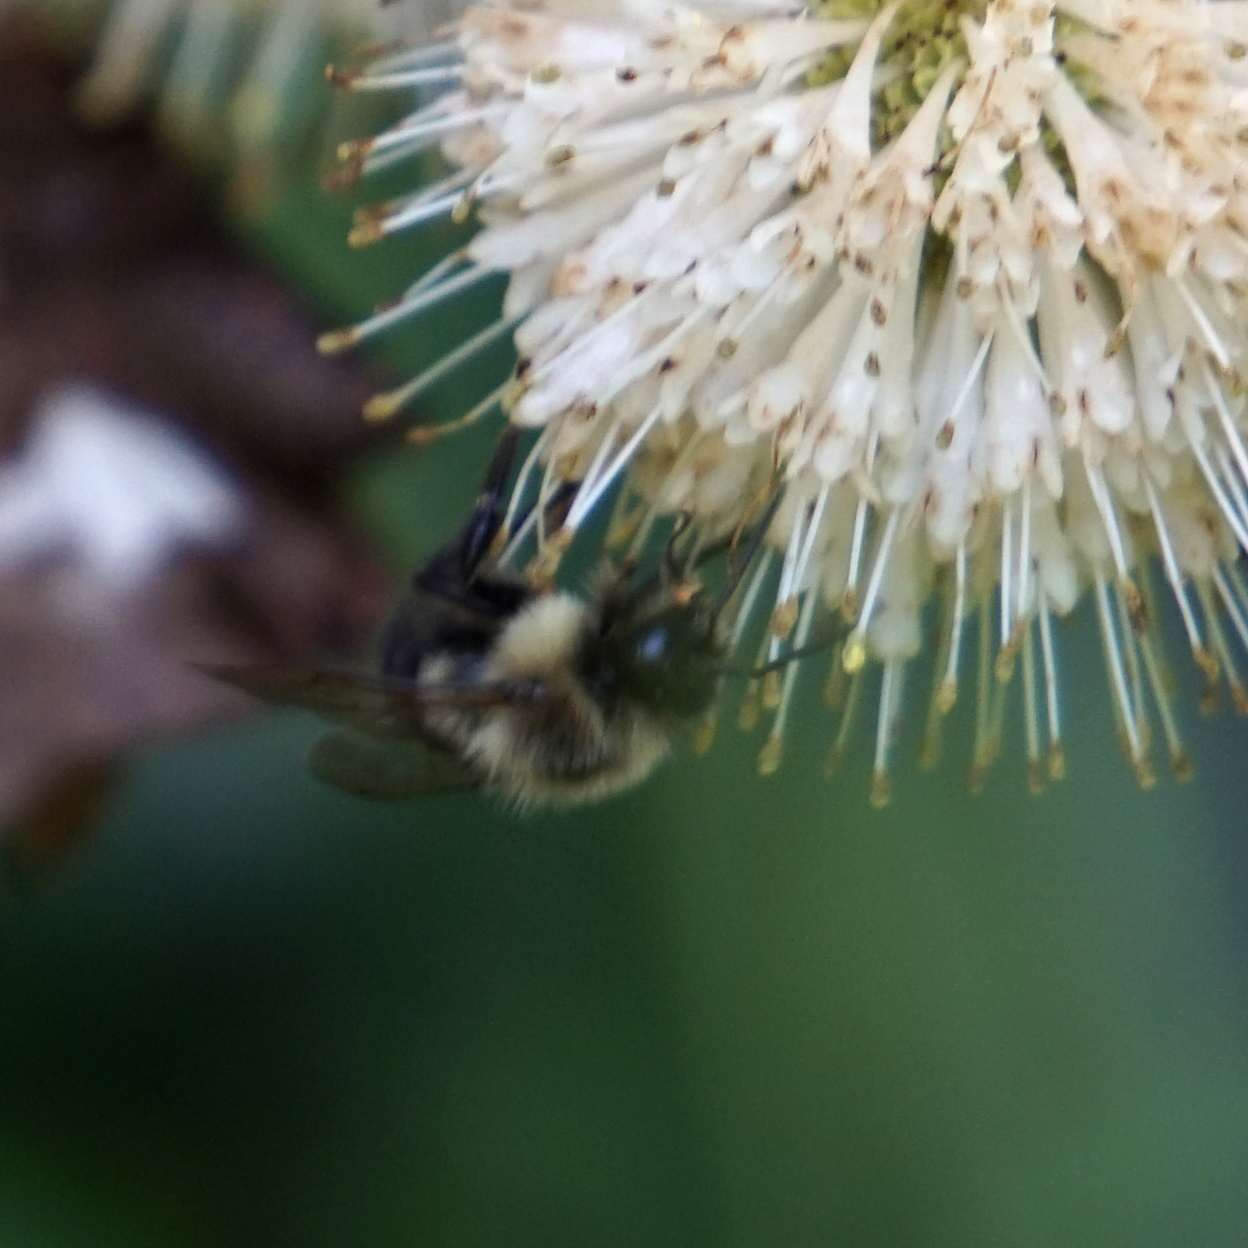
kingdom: Animalia
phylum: Arthropoda
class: Insecta
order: Hymenoptera
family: Apidae
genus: Bombus
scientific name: Bombus impatiens
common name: Common eastern bumble bee
